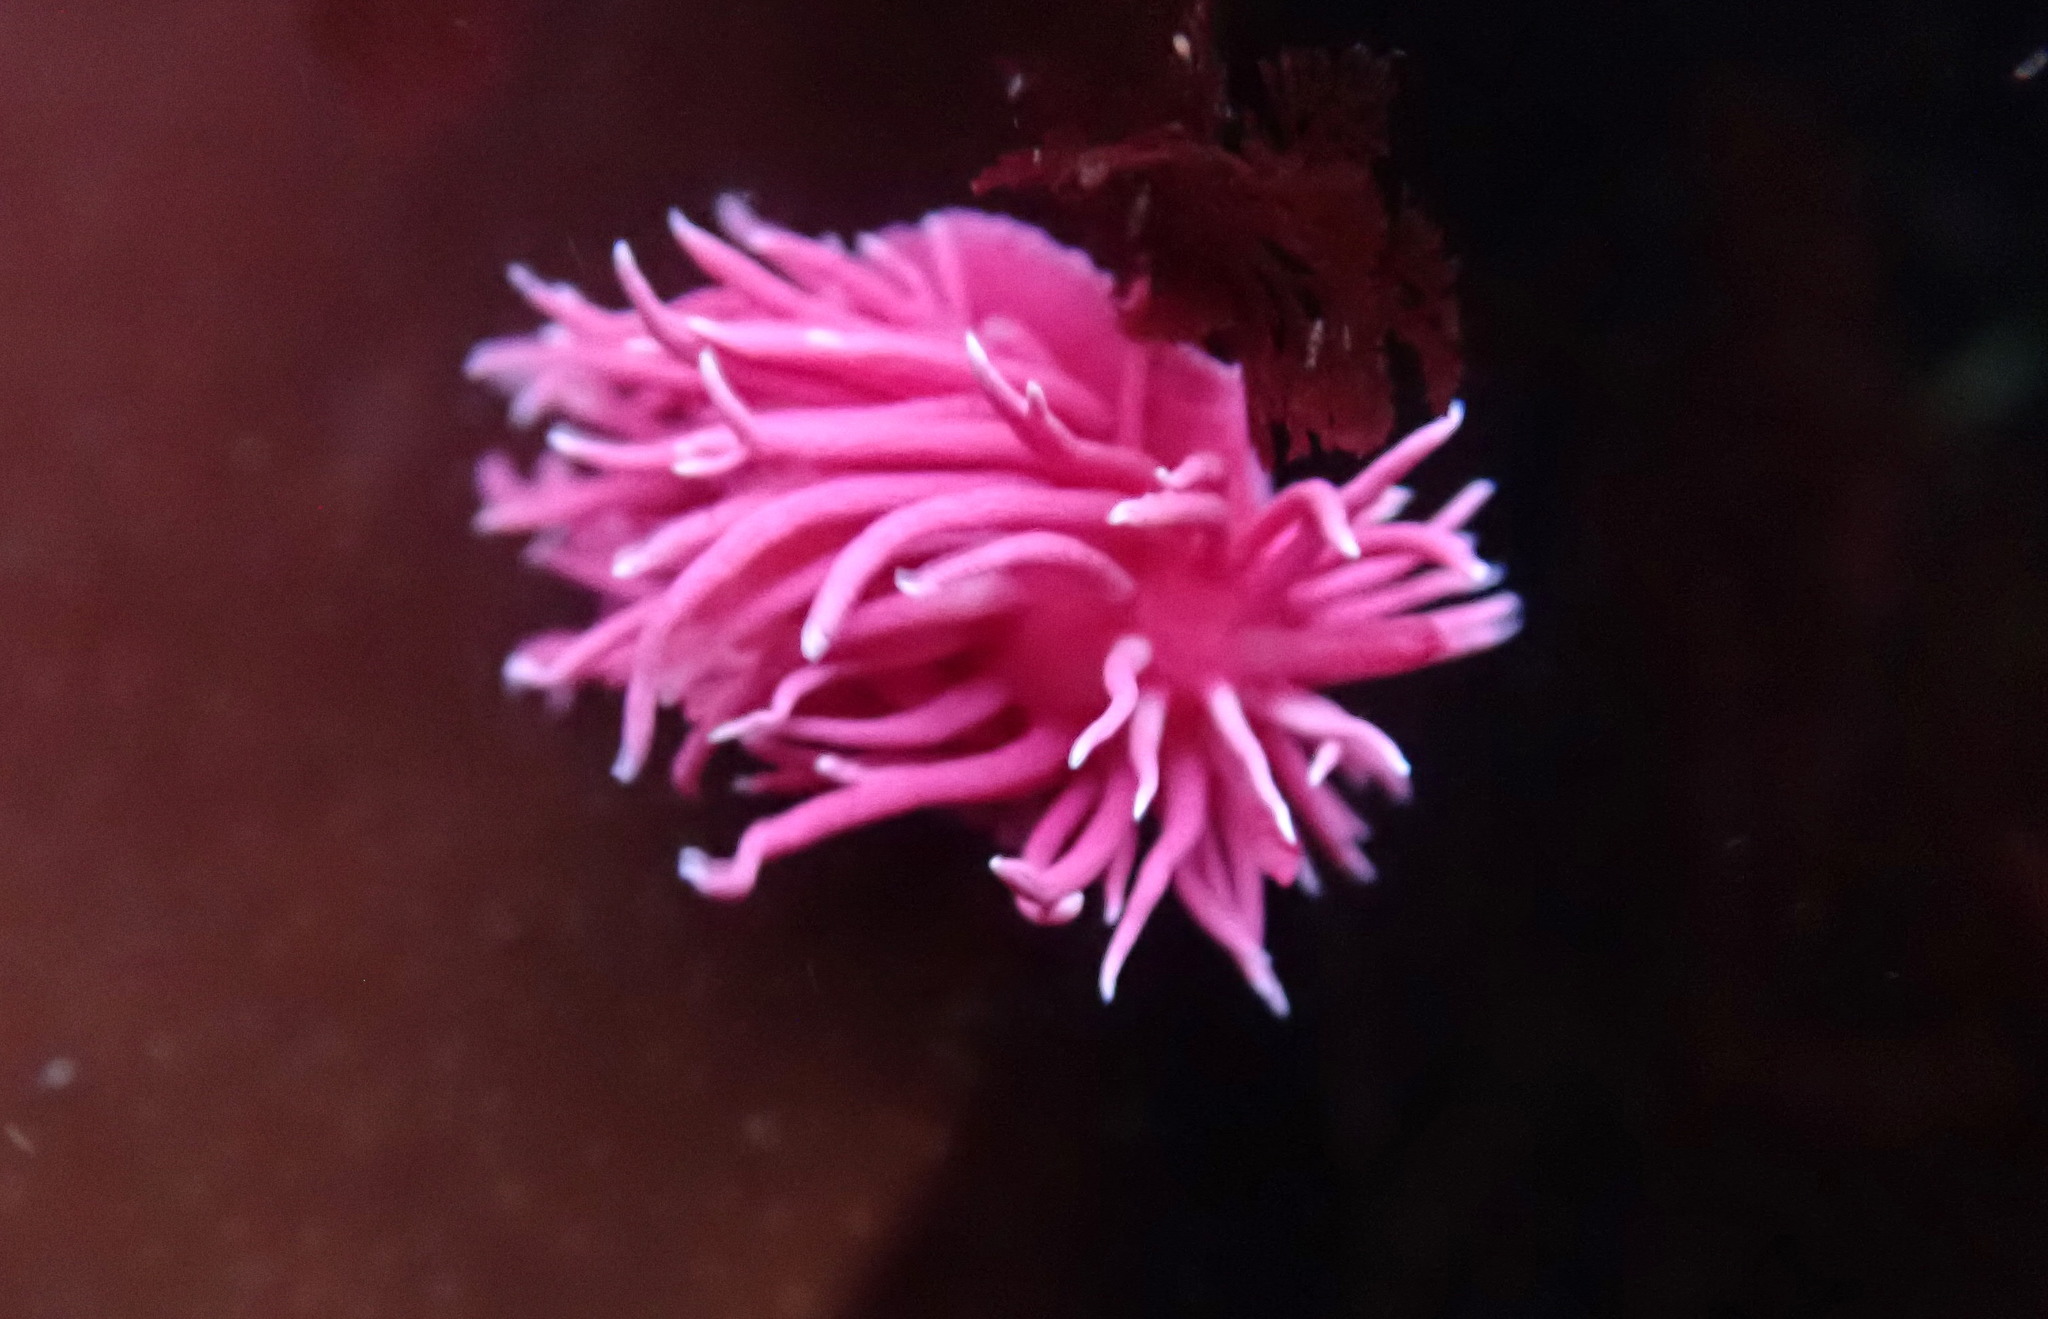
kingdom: Animalia
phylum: Mollusca
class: Gastropoda
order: Nudibranchia
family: Goniodorididae
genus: Okenia
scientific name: Okenia
